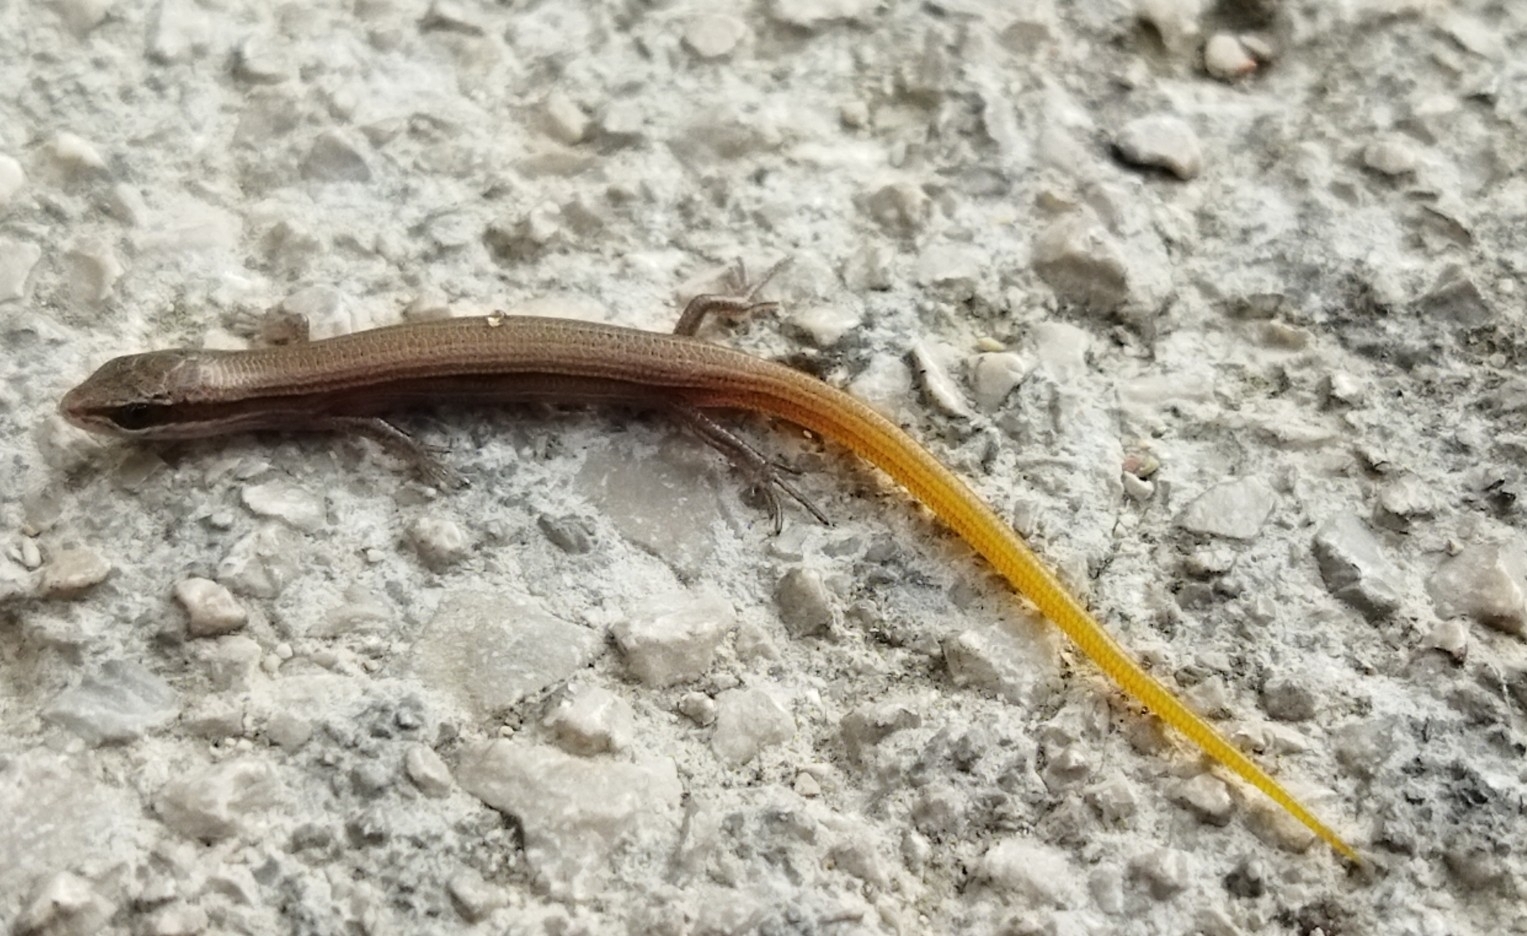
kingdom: Animalia
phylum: Chordata
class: Squamata
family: Scincidae
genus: Ablepharus
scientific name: Ablepharus kitaibelii
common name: Juniper skink
